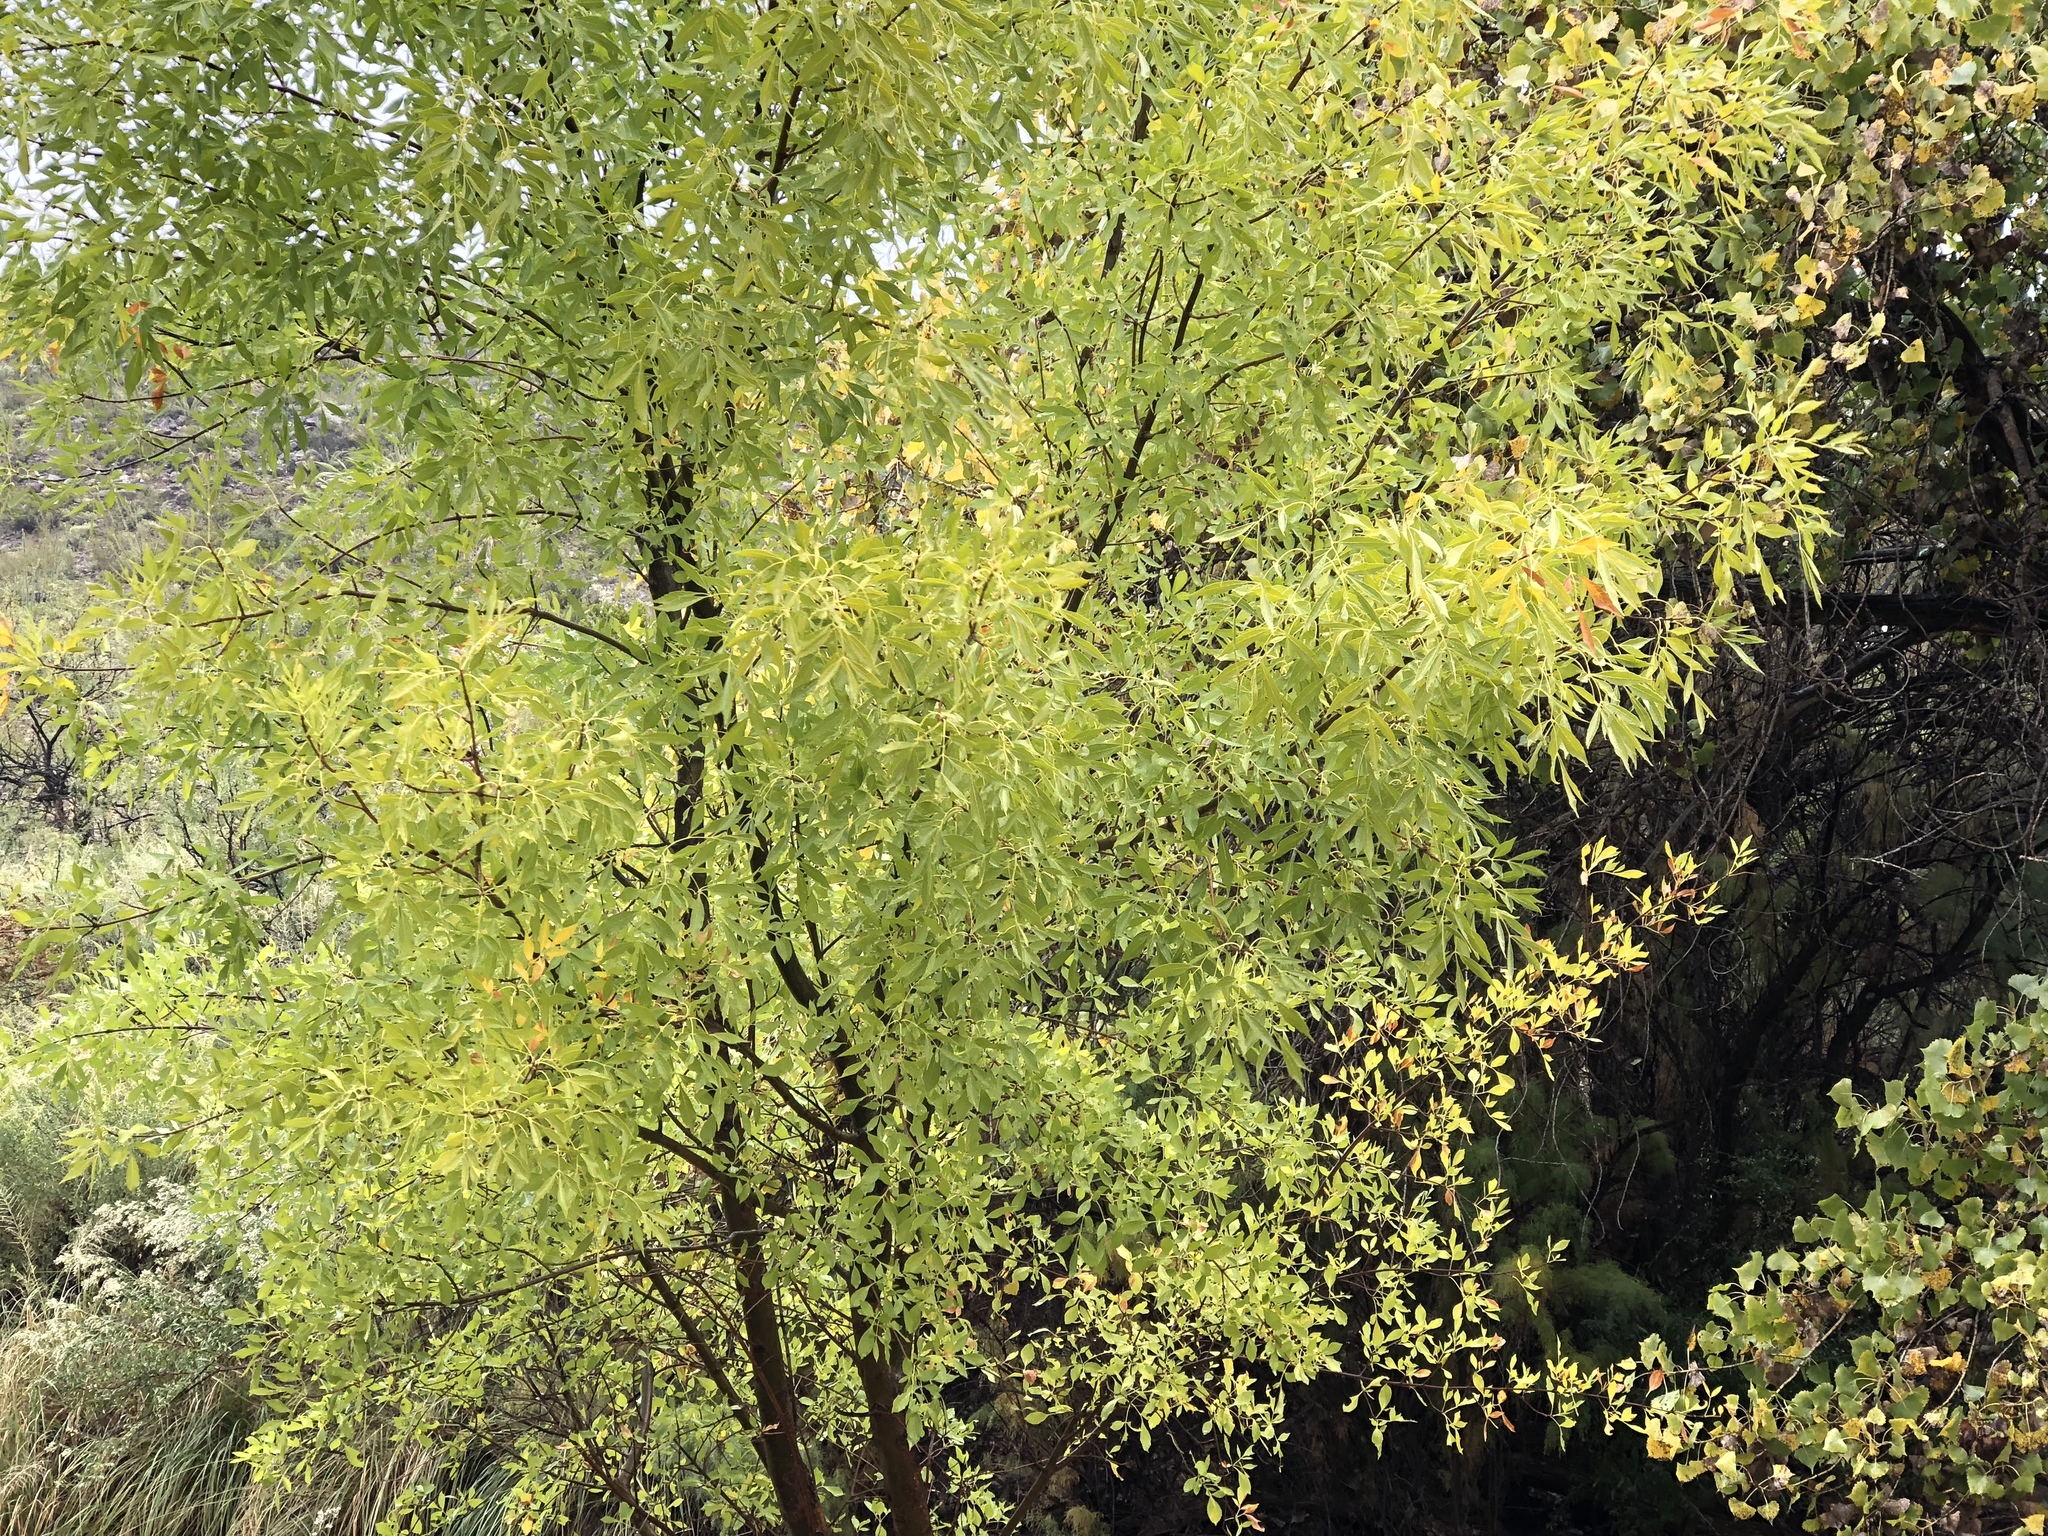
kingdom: Plantae
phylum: Tracheophyta
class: Magnoliopsida
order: Lamiales
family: Oleaceae
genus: Fraxinus
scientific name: Fraxinus velutina
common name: Arizon ash
